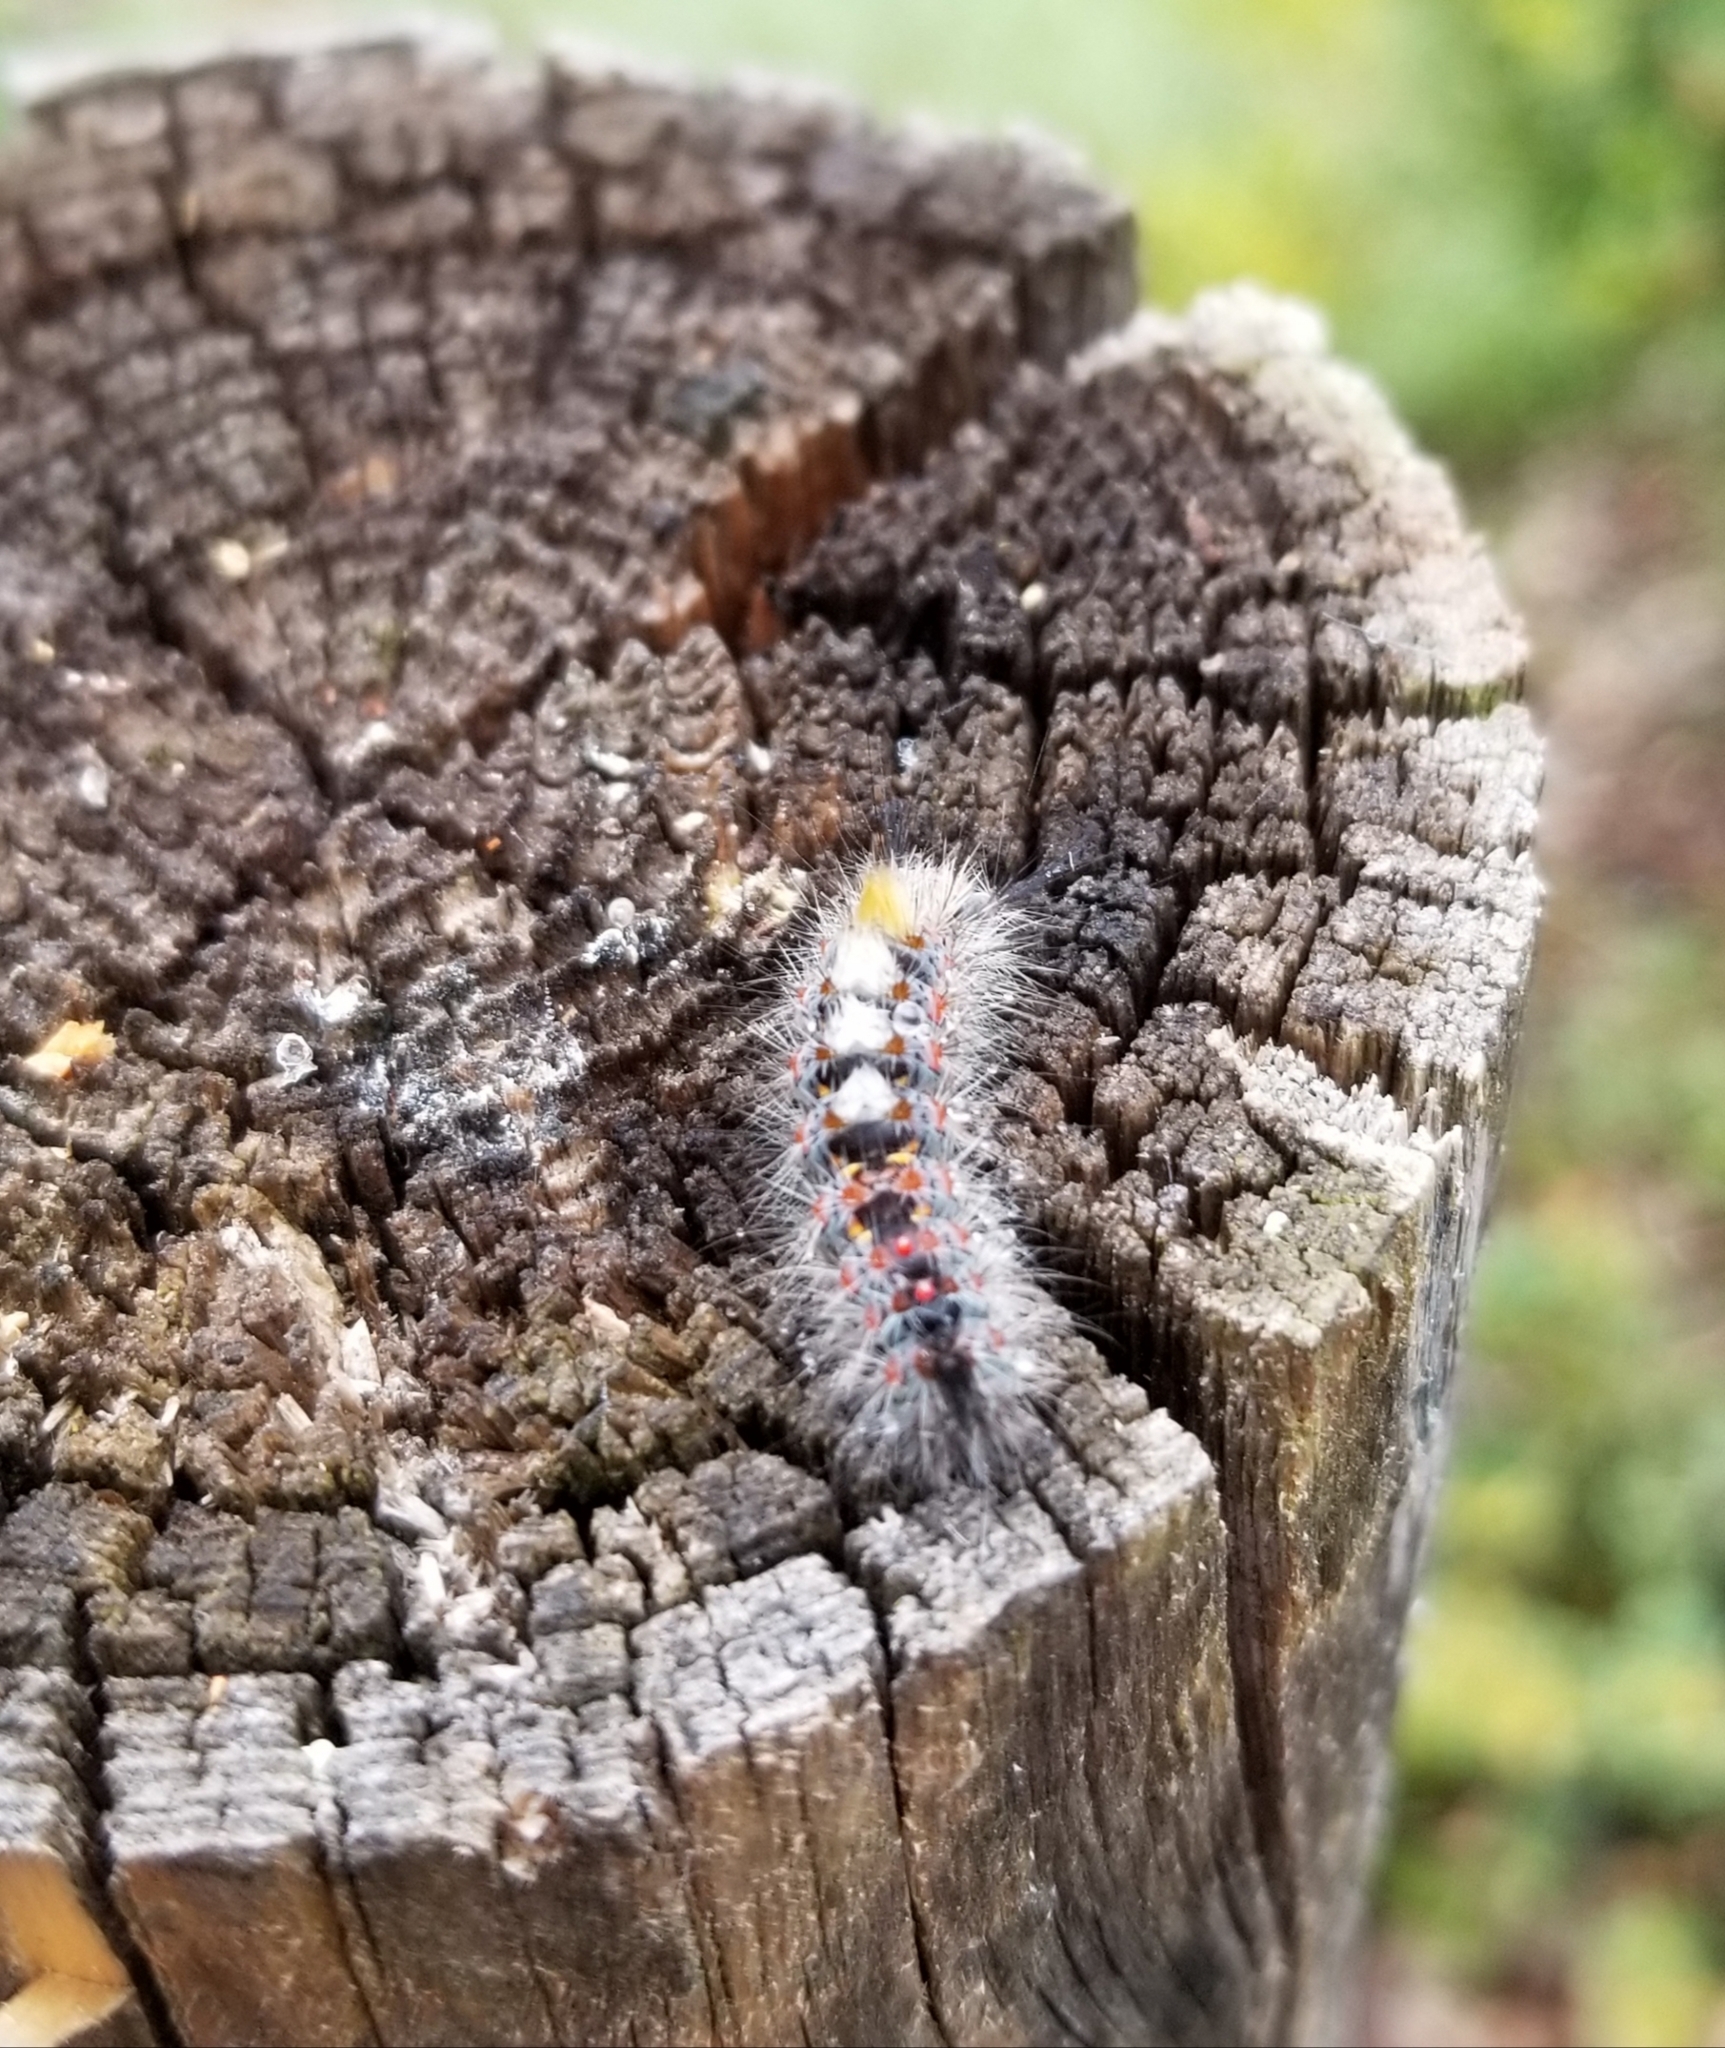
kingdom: Animalia
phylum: Arthropoda
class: Insecta
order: Lepidoptera
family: Erebidae
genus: Orgyia
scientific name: Orgyia vetusta
